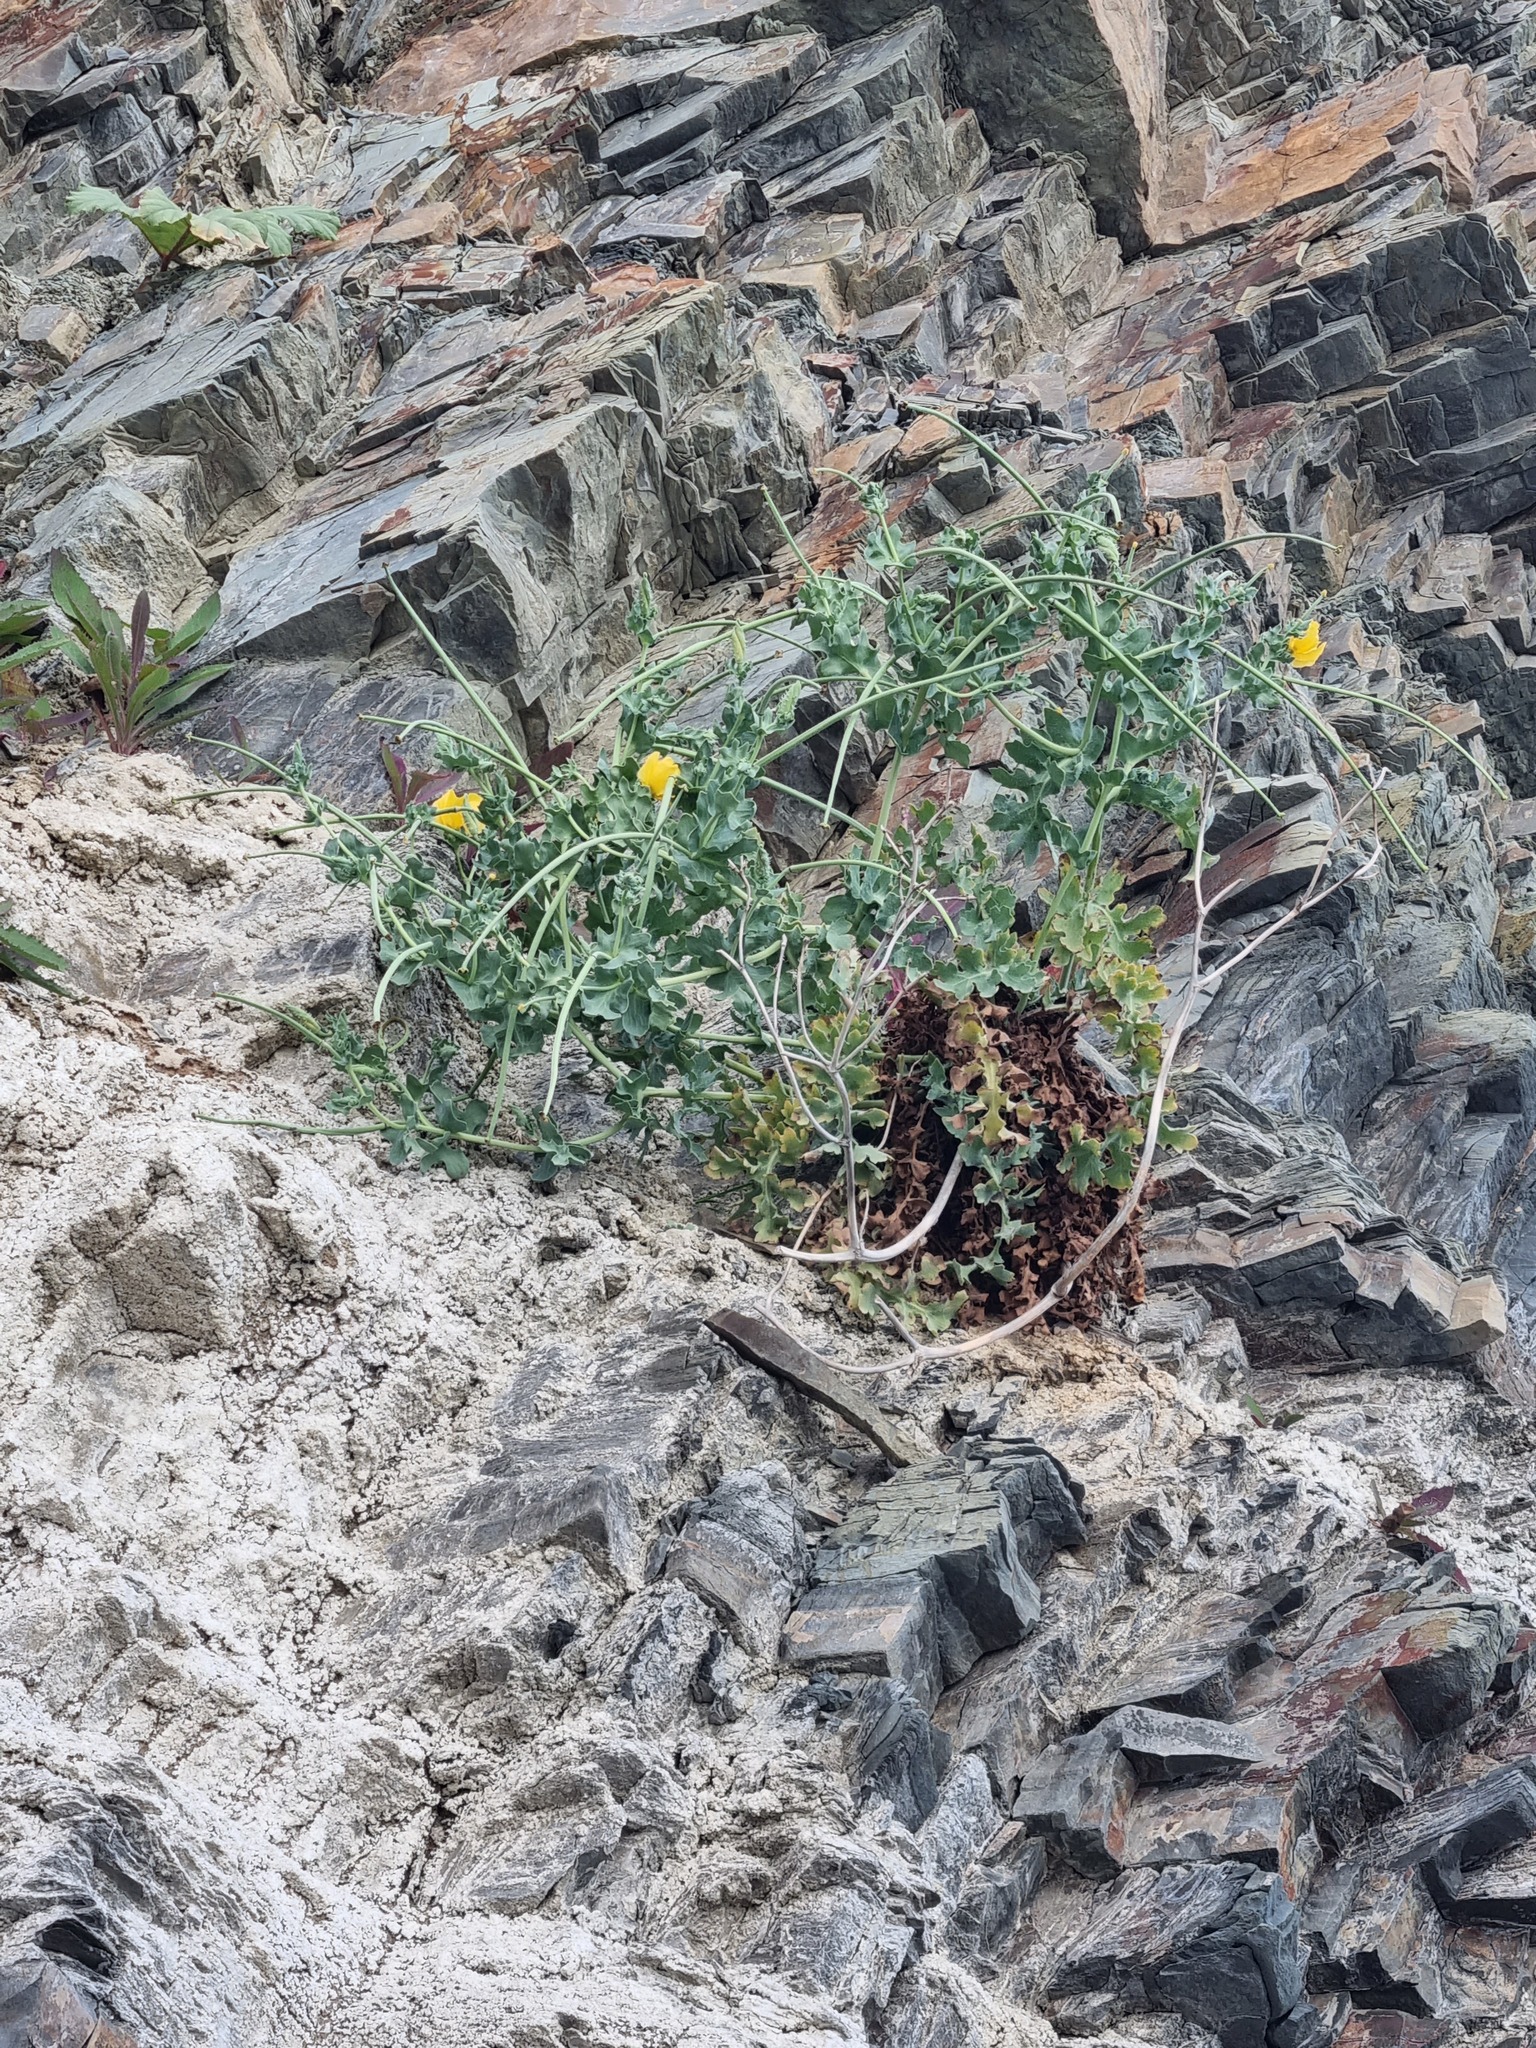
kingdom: Plantae
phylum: Tracheophyta
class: Magnoliopsida
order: Ranunculales
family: Papaveraceae
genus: Glaucium
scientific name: Glaucium flavum
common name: Yellow horned-poppy
